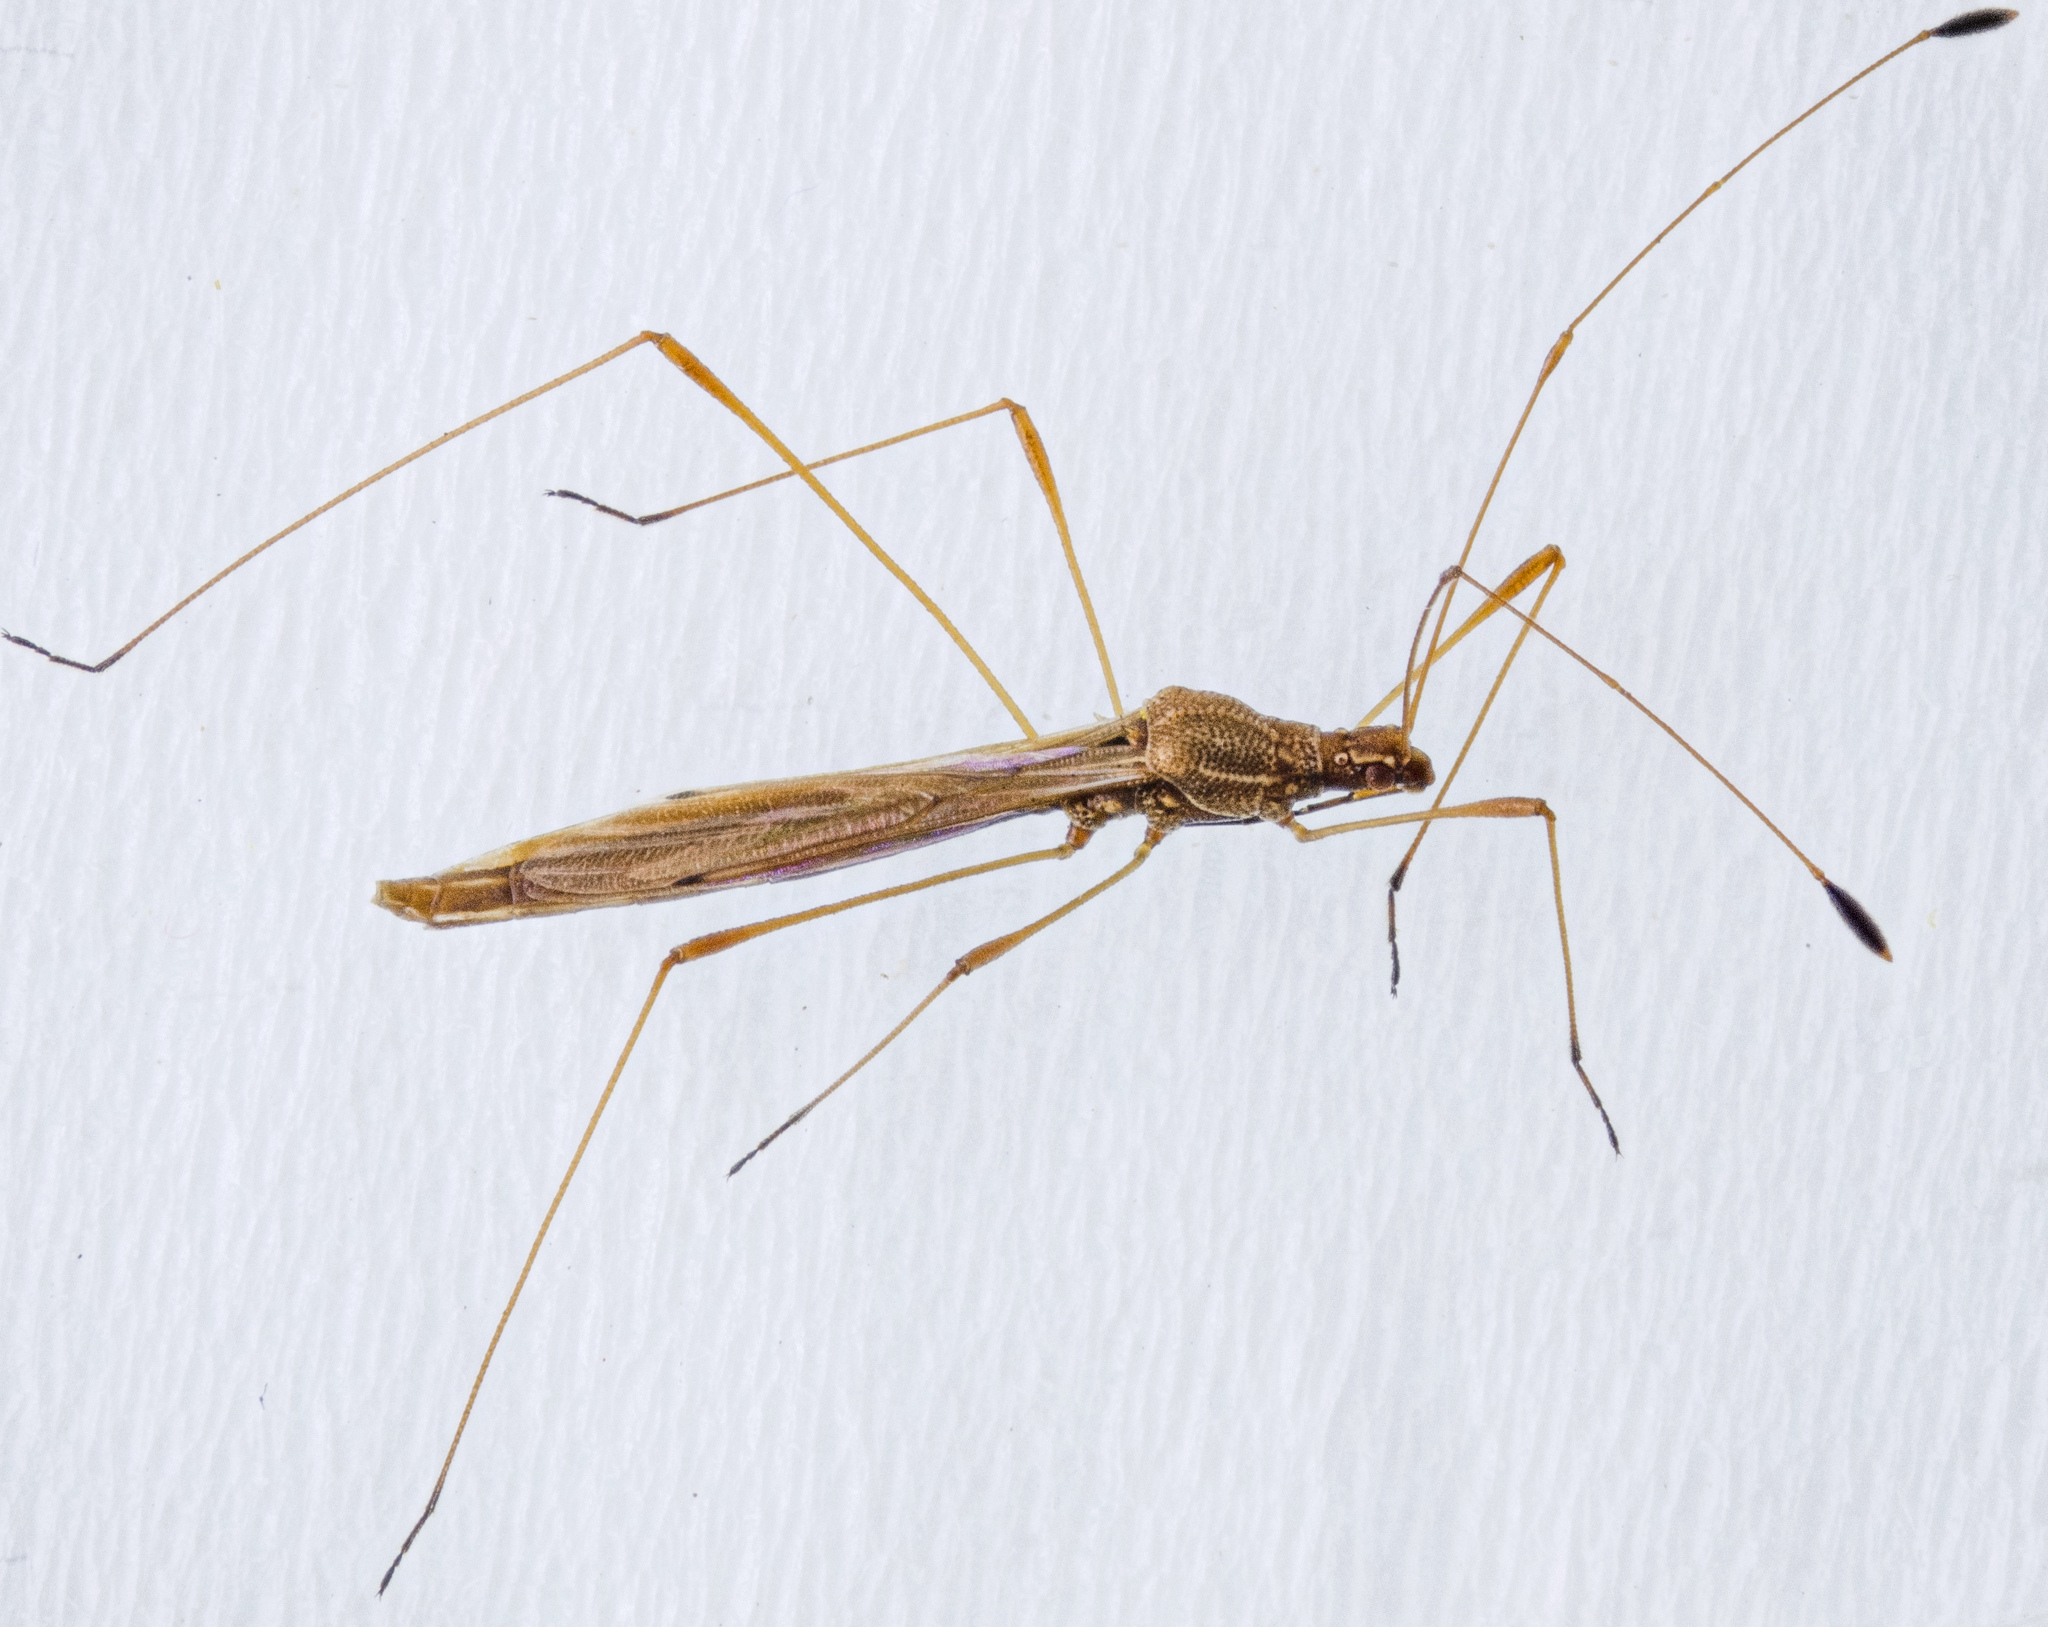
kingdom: Animalia
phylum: Arthropoda
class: Insecta
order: Hemiptera
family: Berytidae
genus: Jalysus
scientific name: Jalysus wickhami
